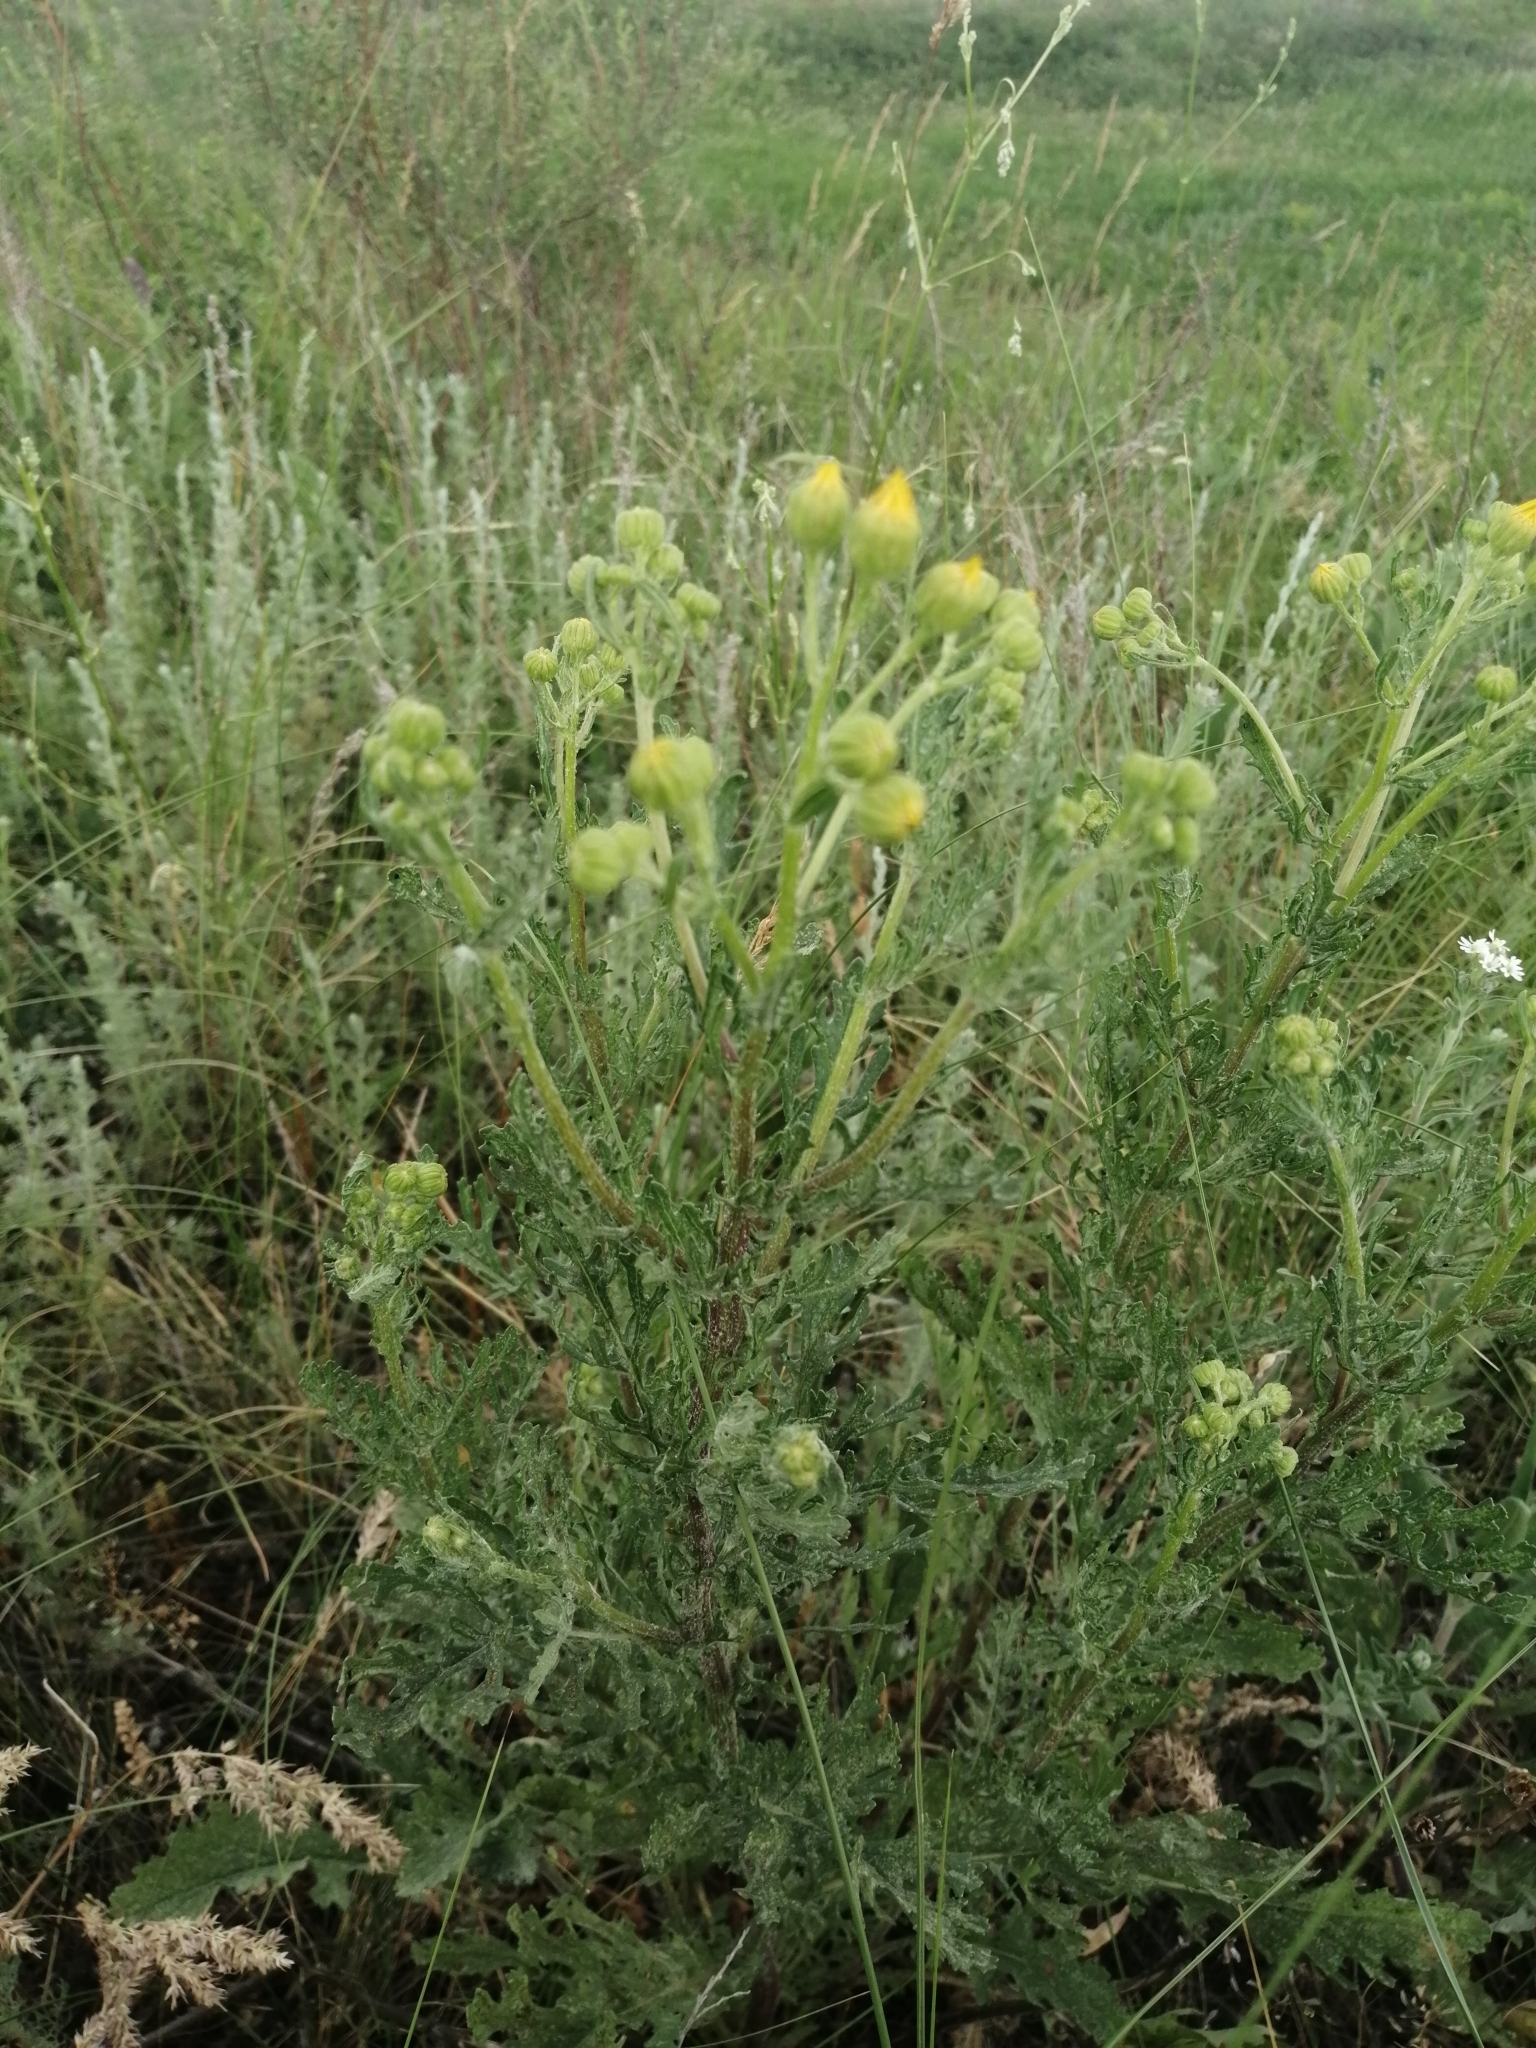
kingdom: Plantae
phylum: Tracheophyta
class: Magnoliopsida
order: Asterales
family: Asteraceae
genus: Jacobaea
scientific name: Jacobaea vulgaris
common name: Stinking willie
